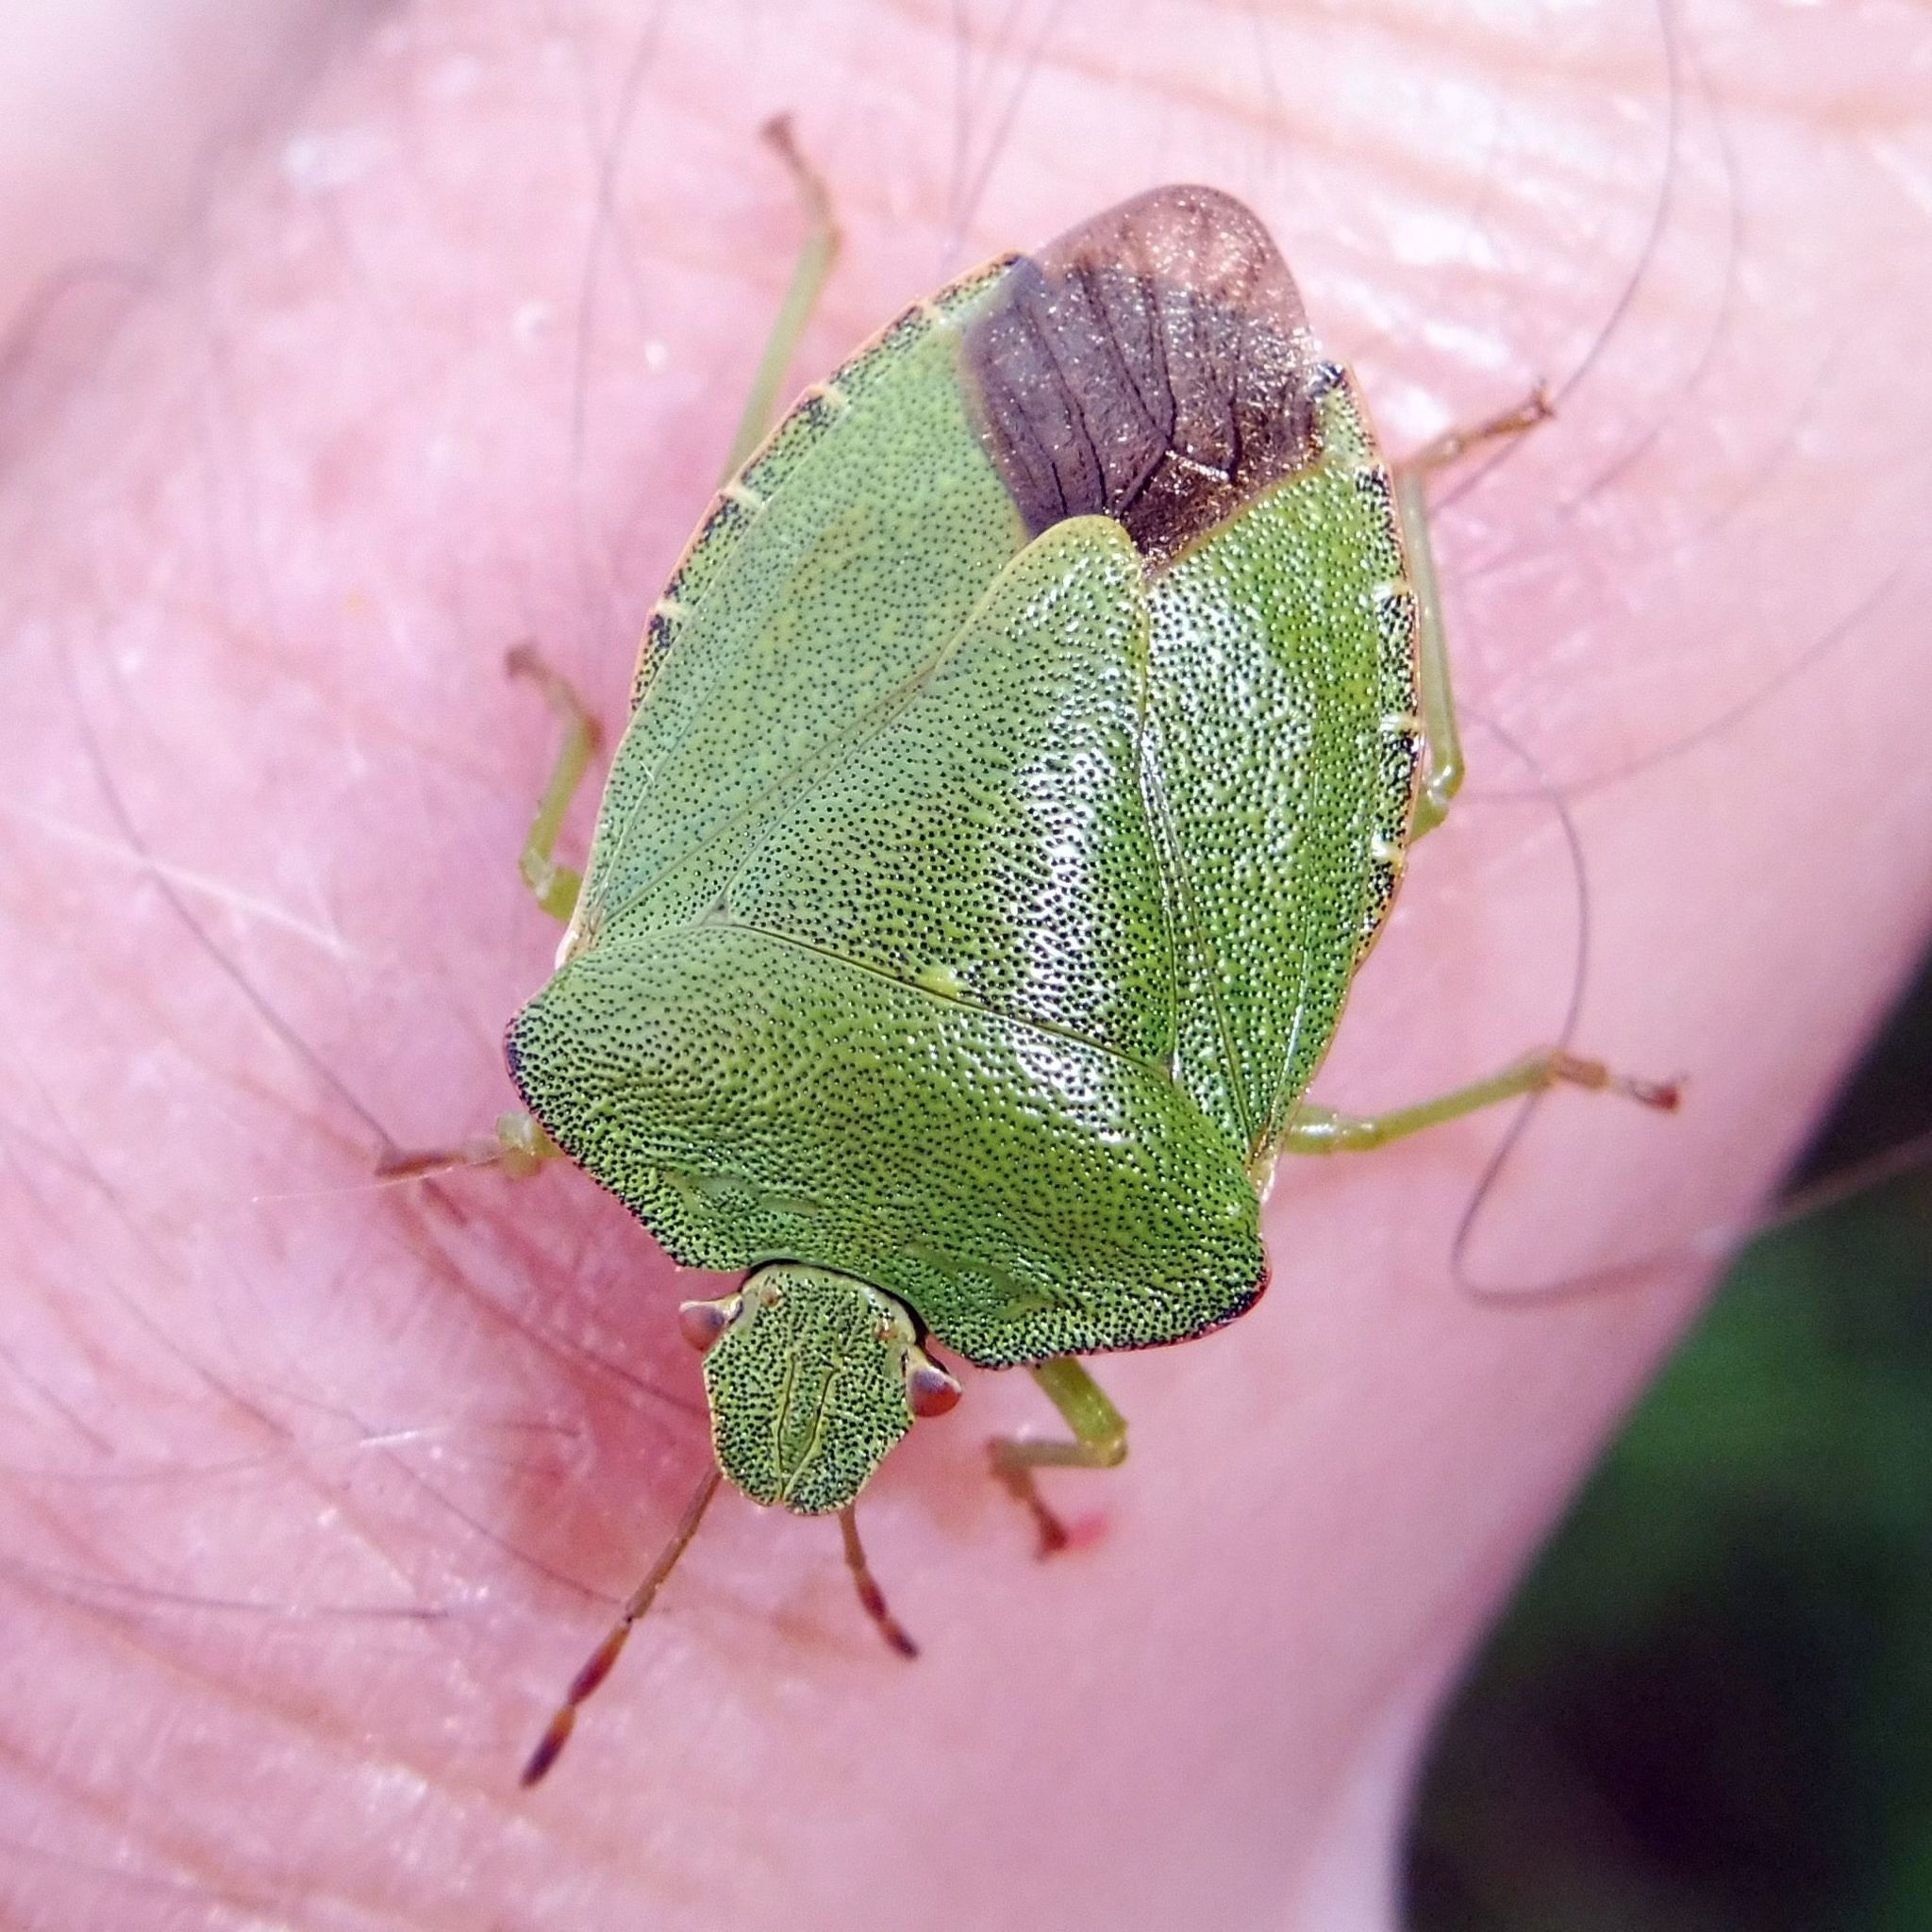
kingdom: Animalia
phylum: Arthropoda
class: Insecta
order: Hemiptera
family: Pentatomidae
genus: Palomena
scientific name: Palomena prasina
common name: Green shieldbug
